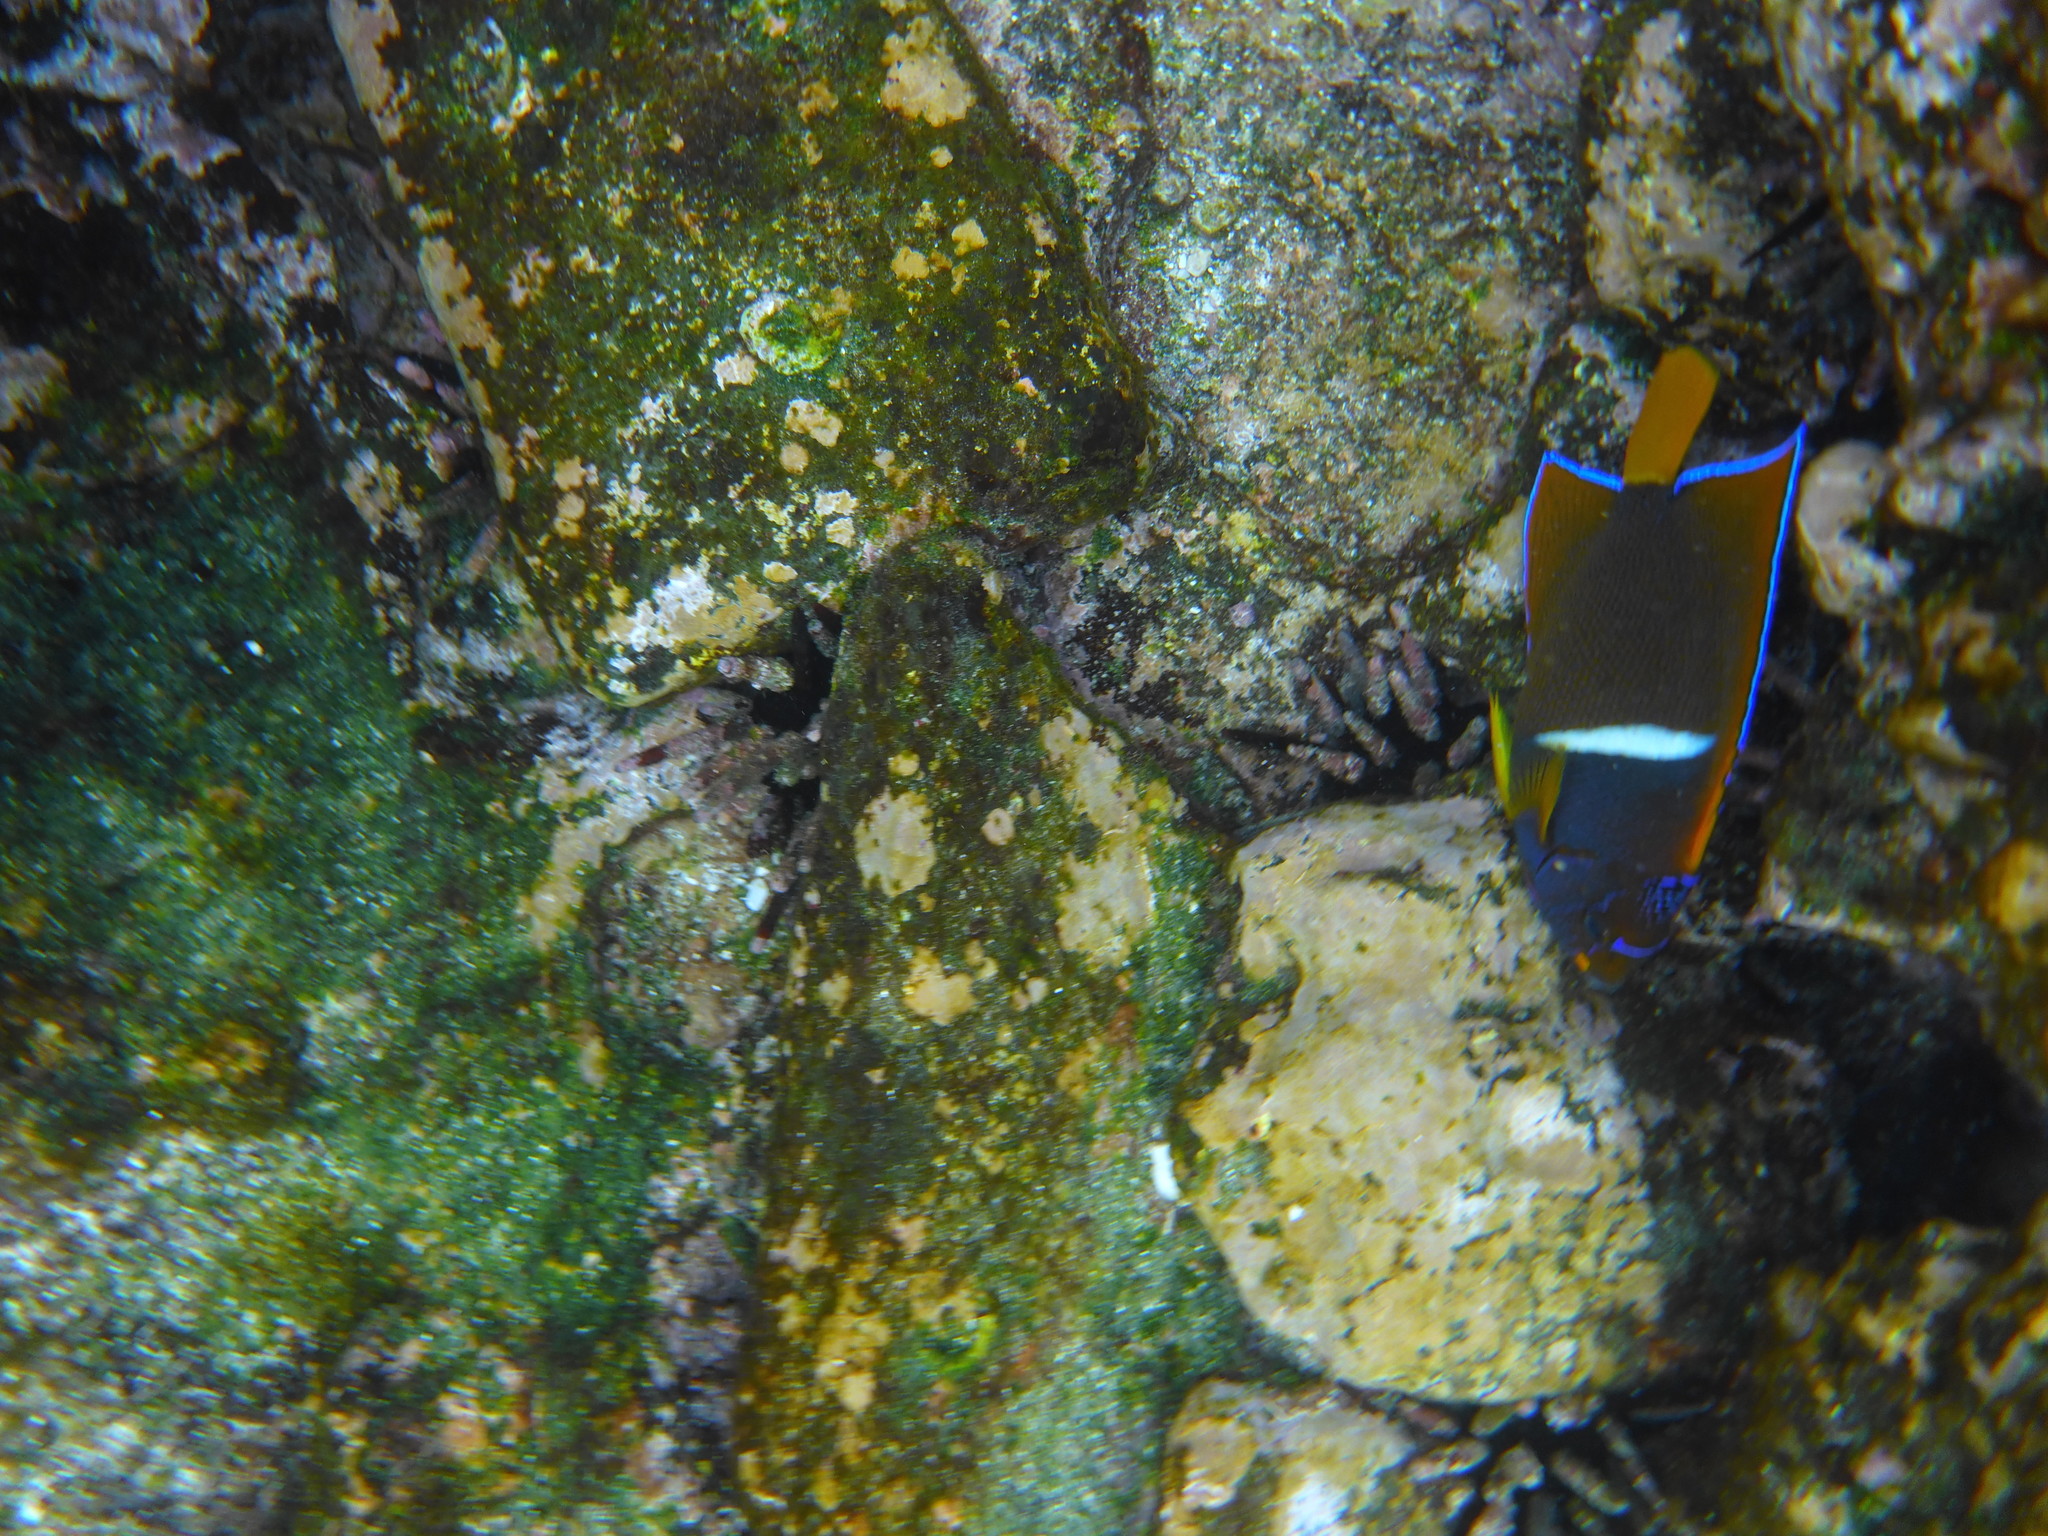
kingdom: Animalia
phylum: Chordata
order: Perciformes
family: Pomacanthidae
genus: Holacanthus
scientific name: Holacanthus passer
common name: King angelfish
